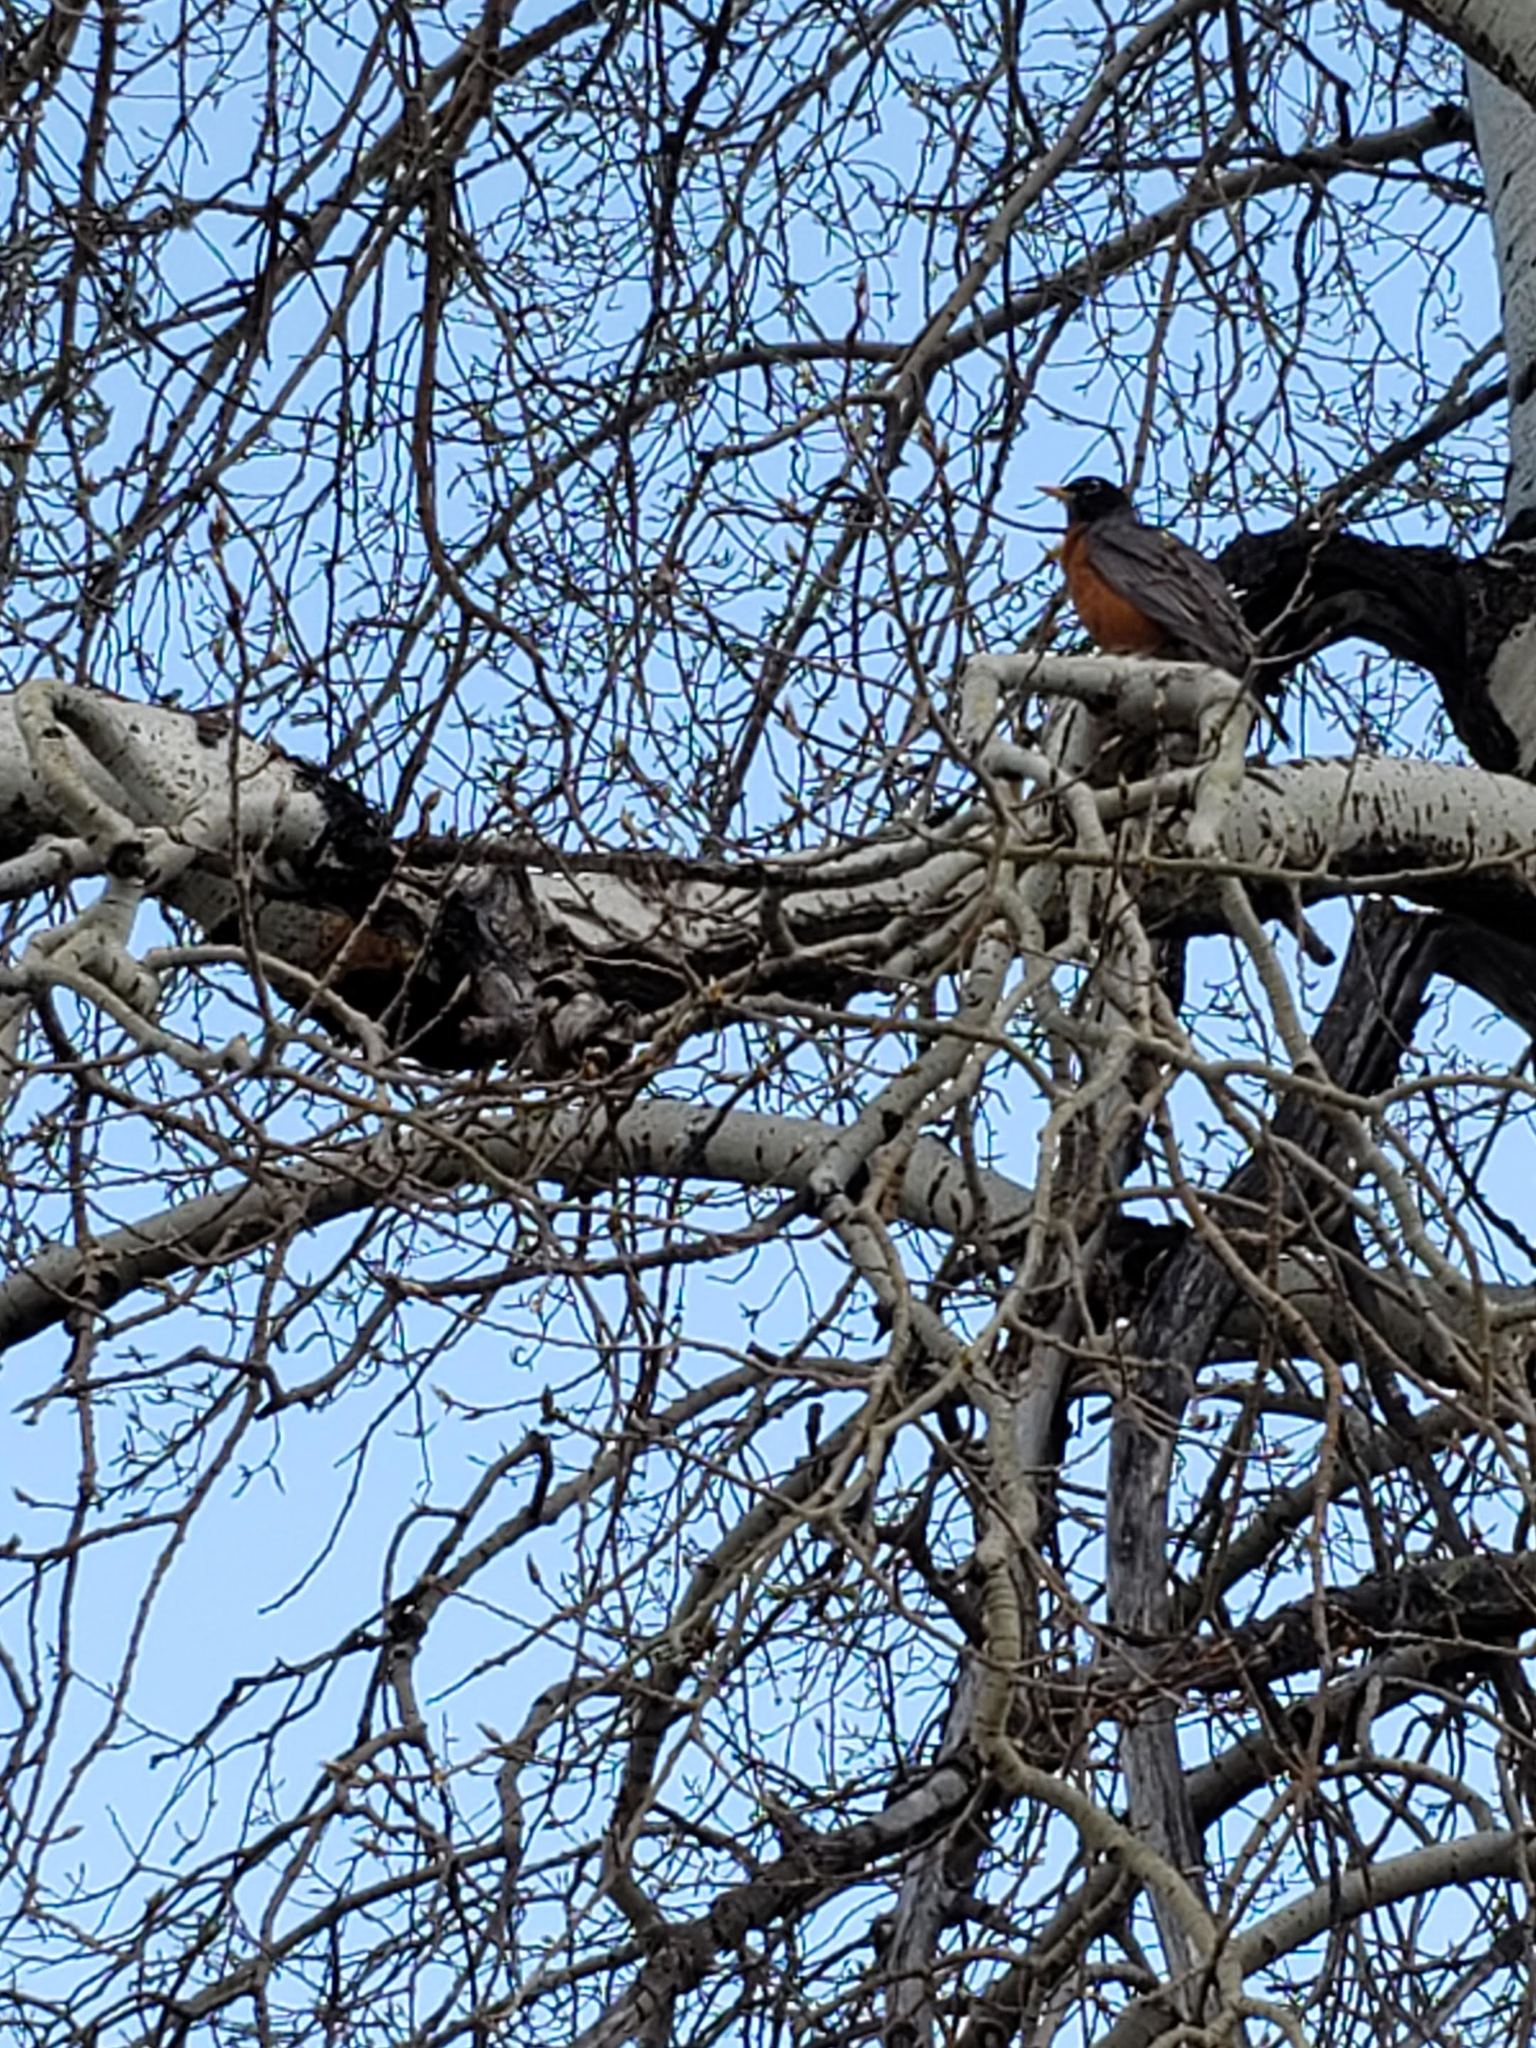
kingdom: Animalia
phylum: Chordata
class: Aves
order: Passeriformes
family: Turdidae
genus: Turdus
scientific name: Turdus migratorius
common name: American robin
